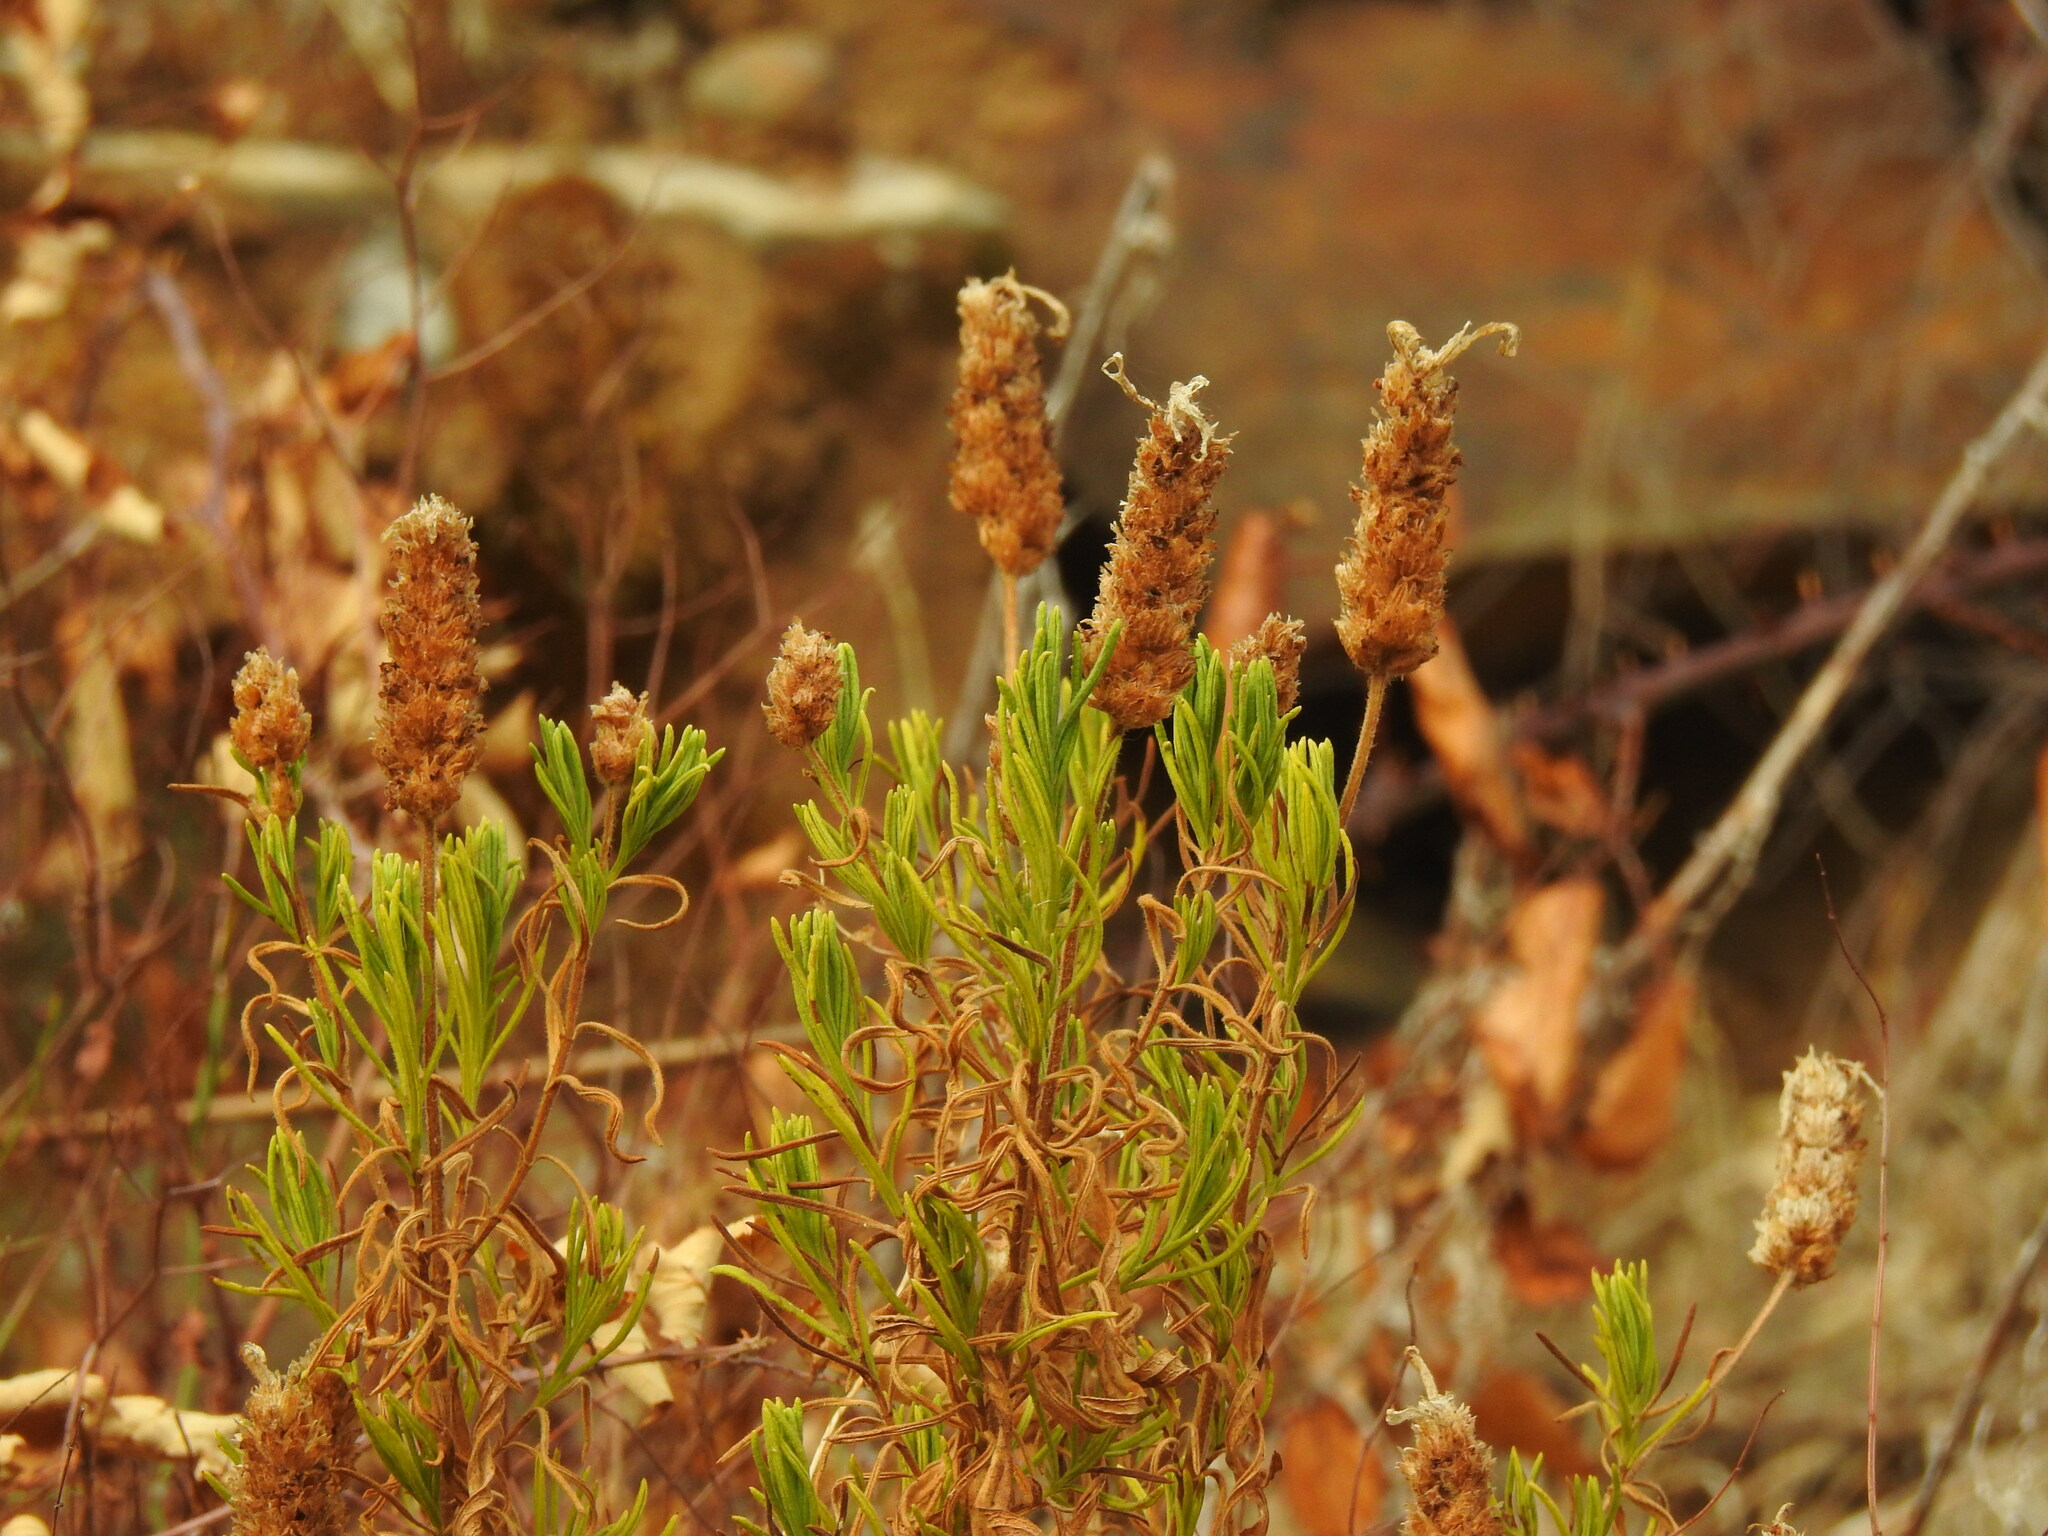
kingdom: Plantae
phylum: Tracheophyta
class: Magnoliopsida
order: Lamiales
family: Lamiaceae
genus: Lavandula
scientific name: Lavandula viridis
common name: Green spanish lavender
